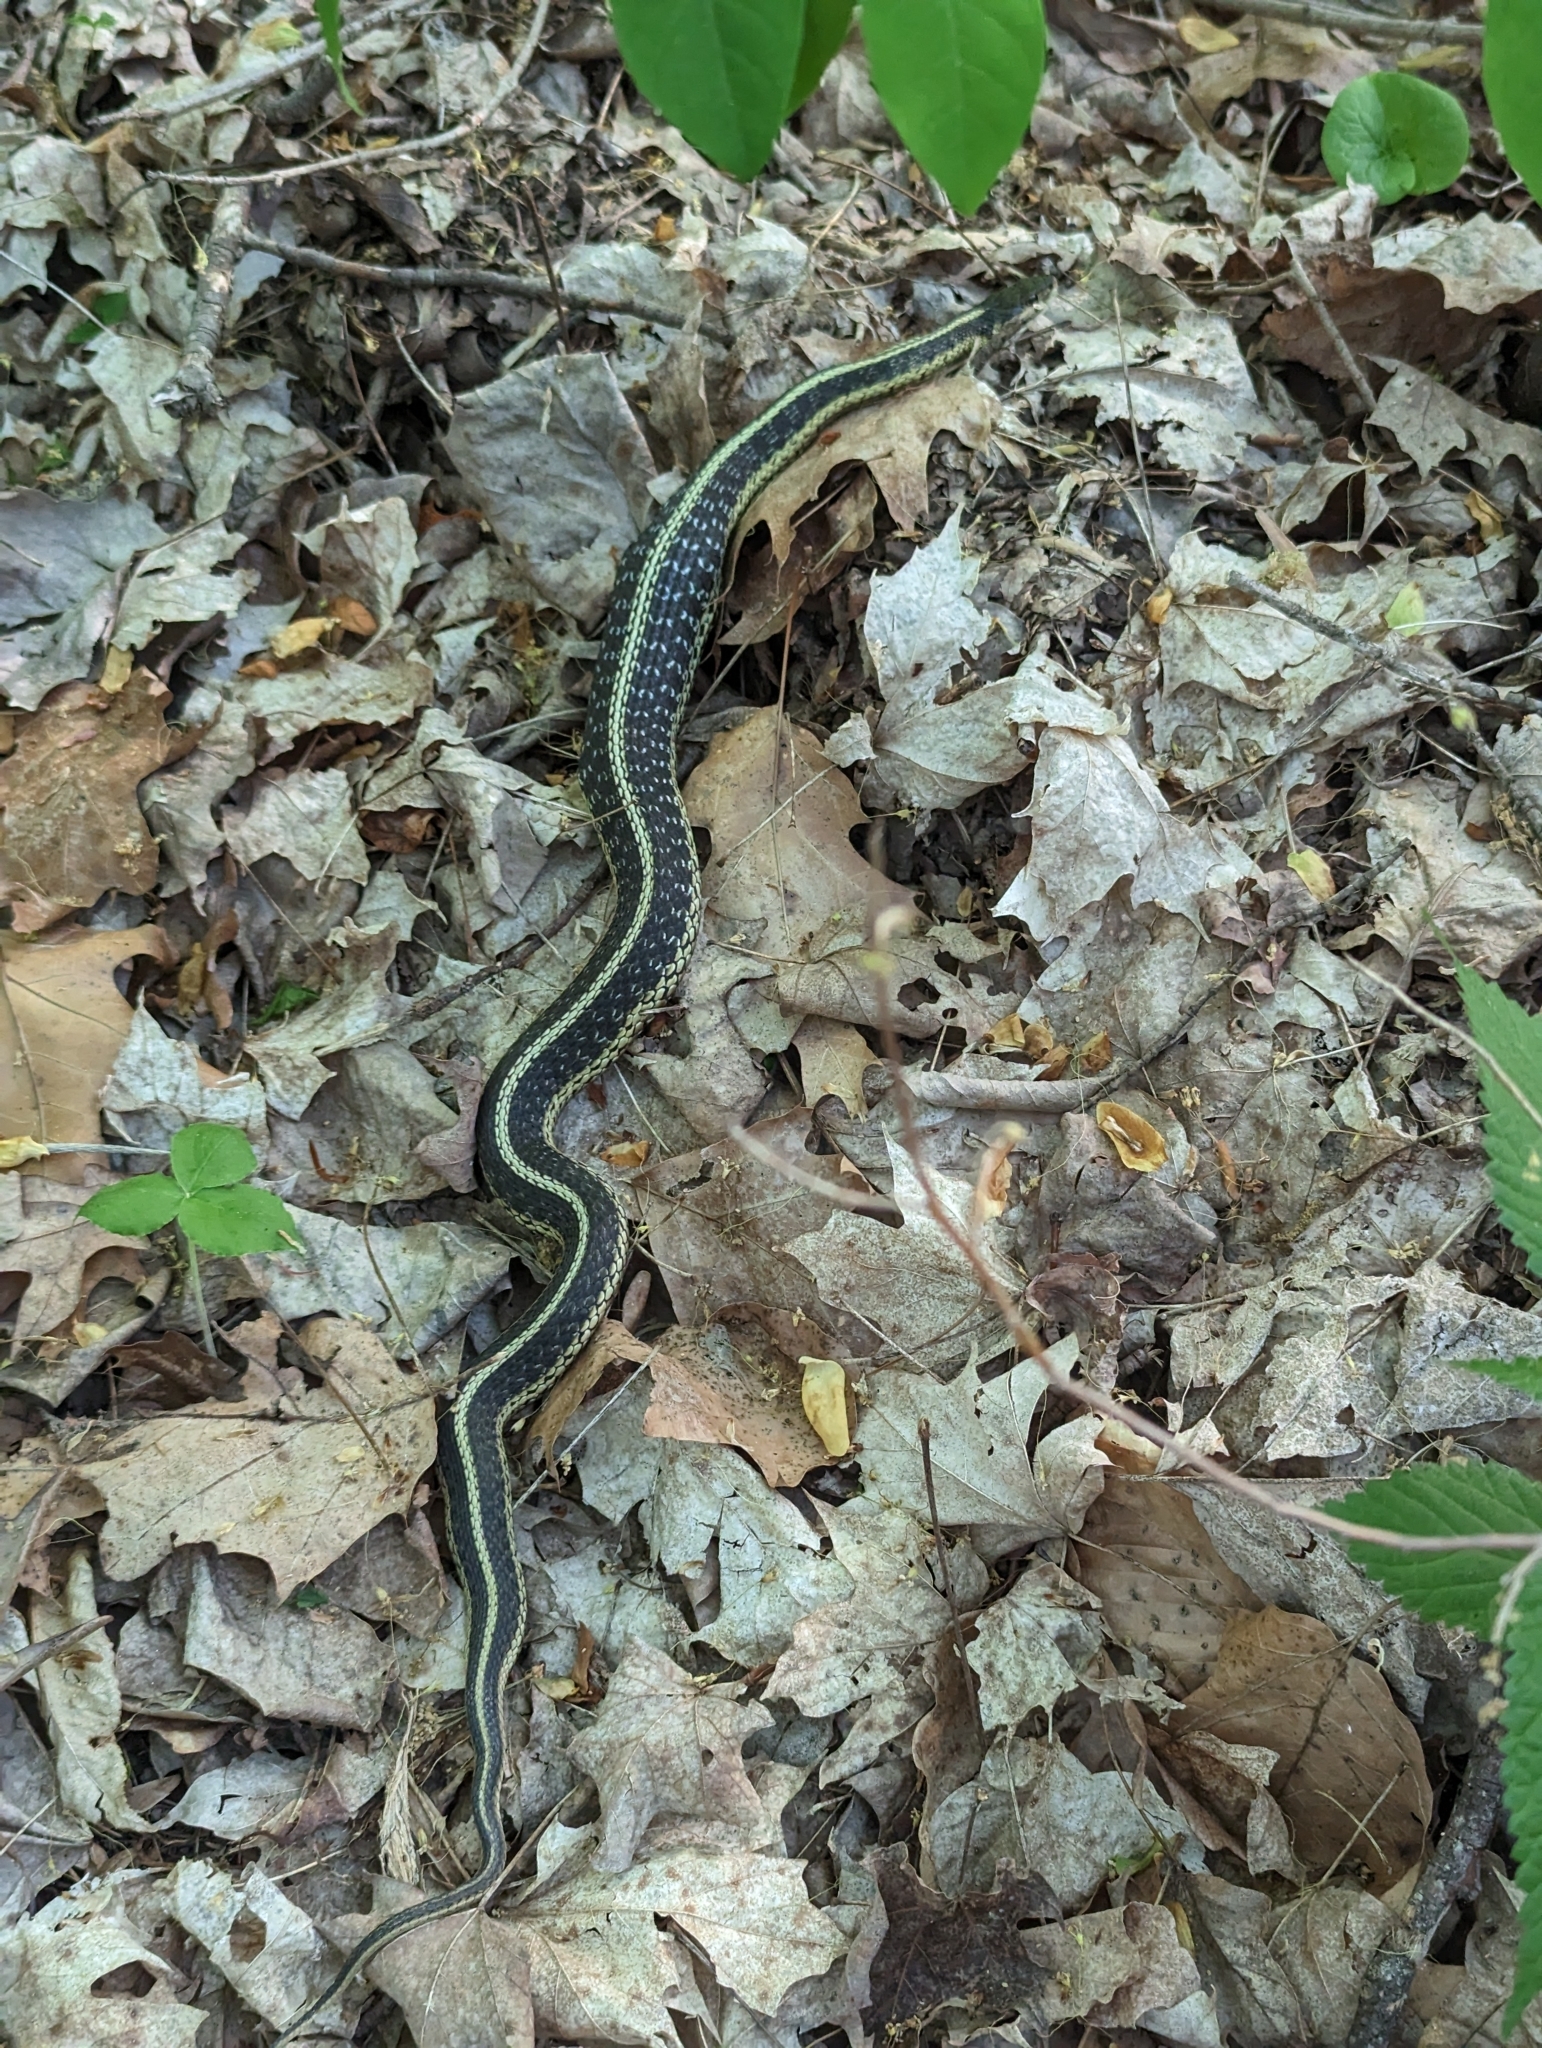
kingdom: Animalia
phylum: Chordata
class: Squamata
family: Colubridae
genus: Thamnophis
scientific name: Thamnophis sirtalis
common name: Common garter snake
